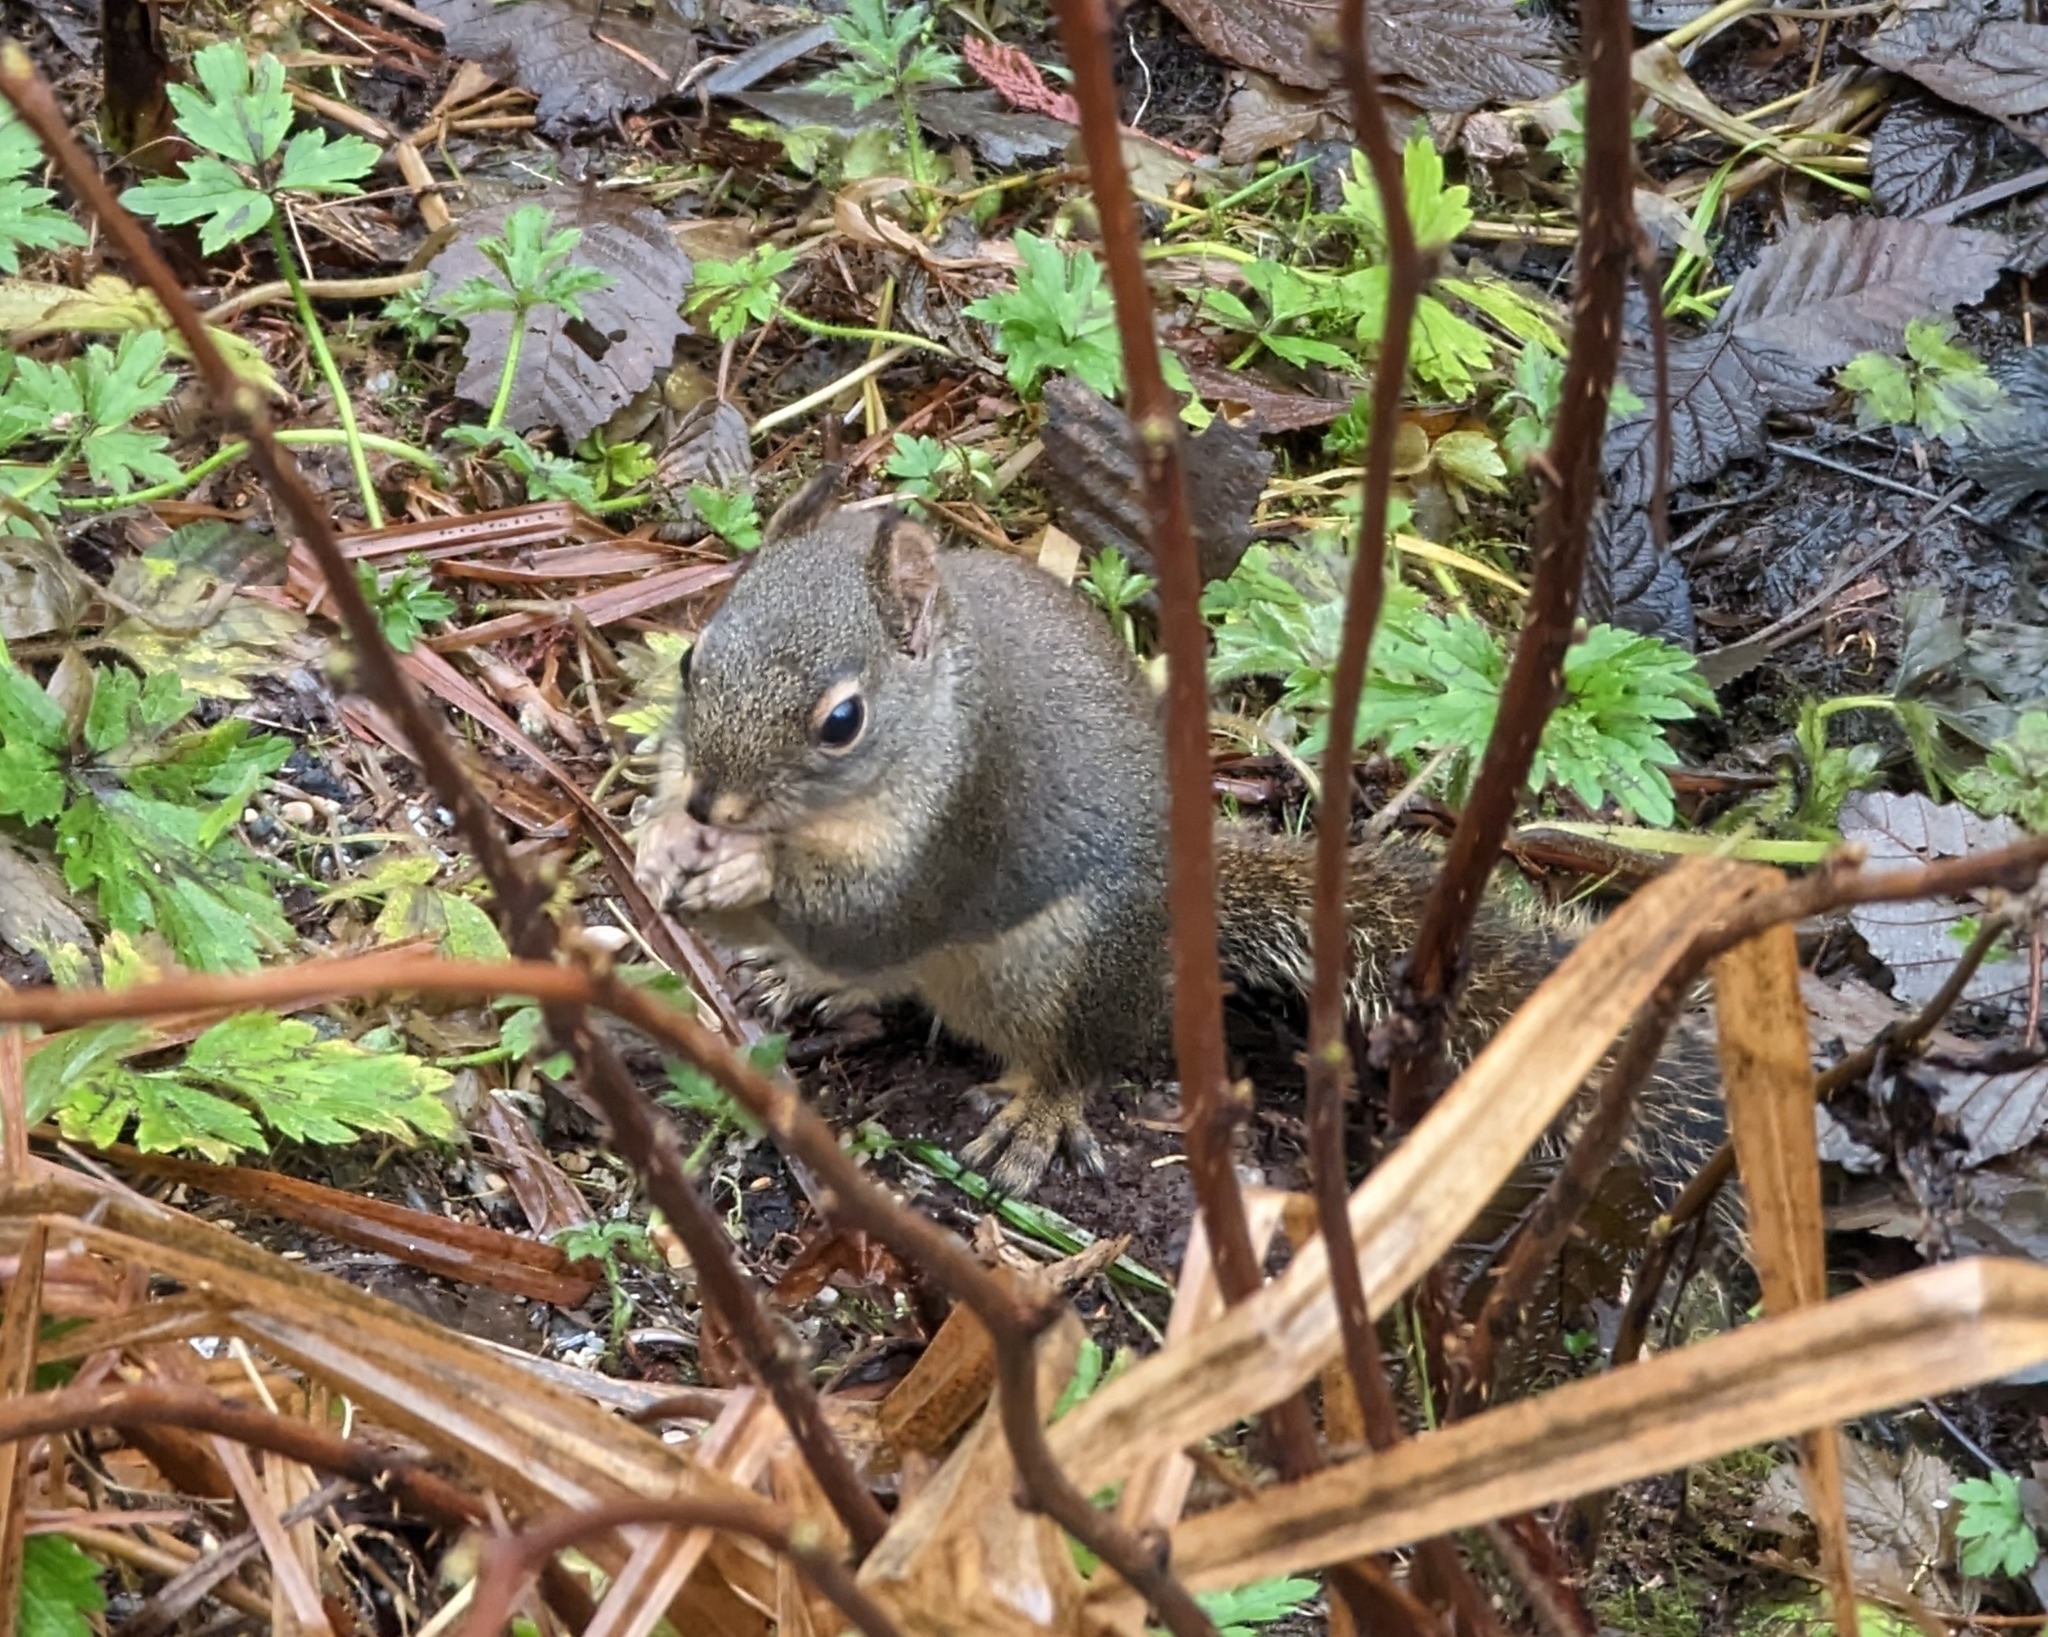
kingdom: Animalia
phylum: Chordata
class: Mammalia
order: Rodentia
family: Sciuridae
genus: Tamiasciurus
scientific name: Tamiasciurus douglasii
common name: Douglas's squirrel
